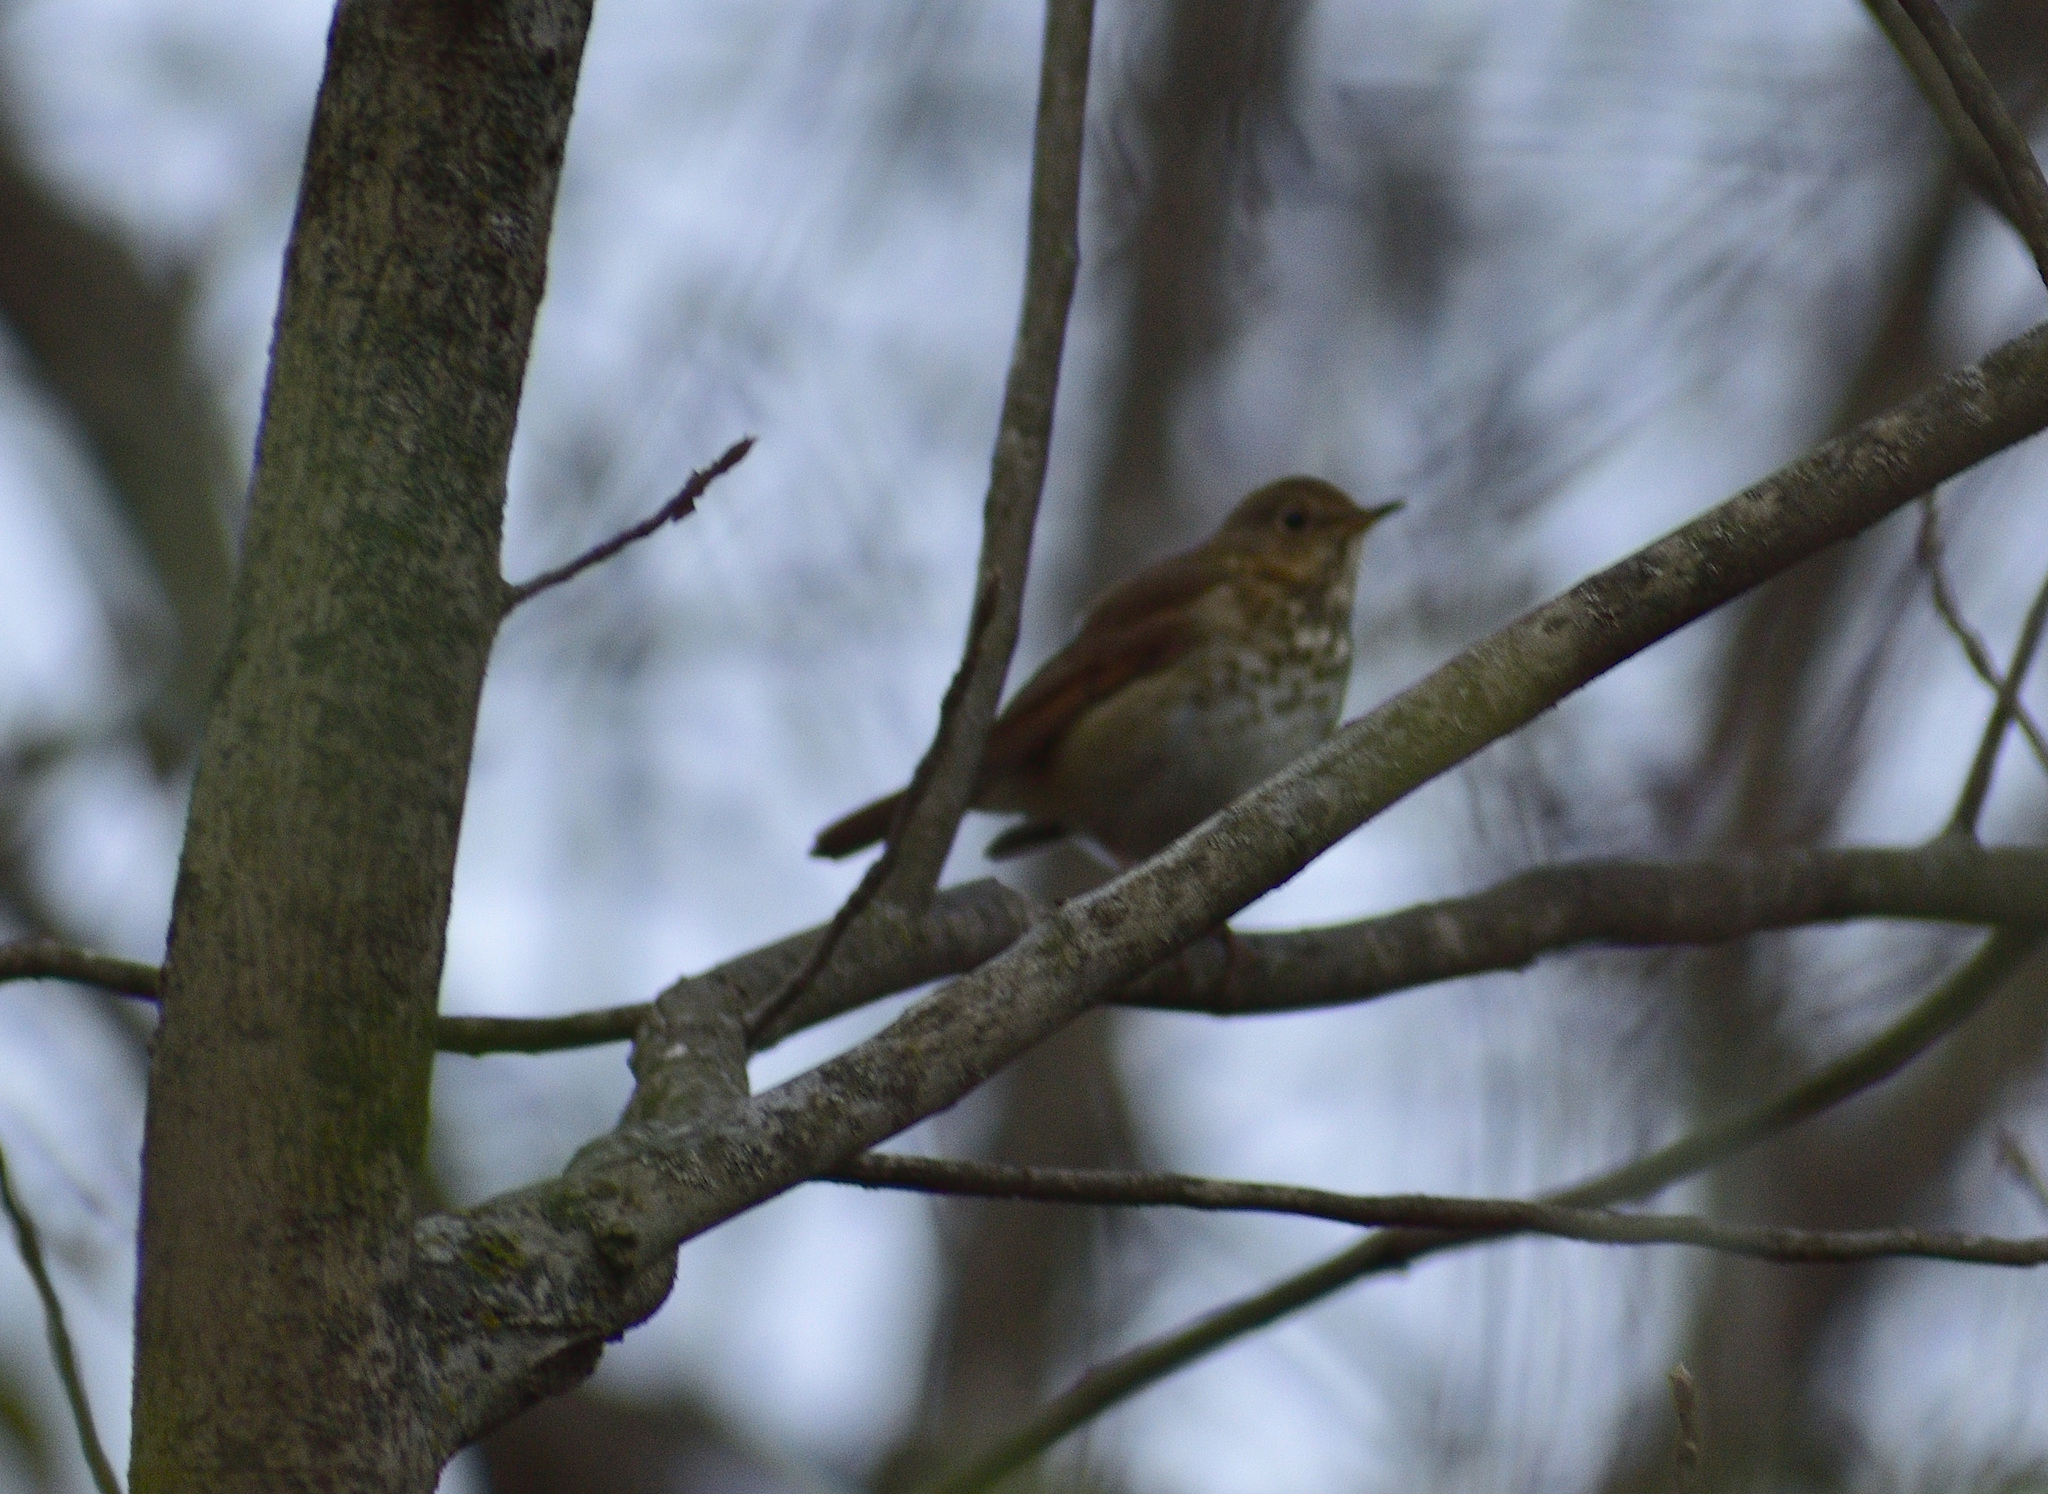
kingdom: Animalia
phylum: Chordata
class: Aves
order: Passeriformes
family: Turdidae
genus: Catharus
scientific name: Catharus ustulatus
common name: Swainson's thrush
